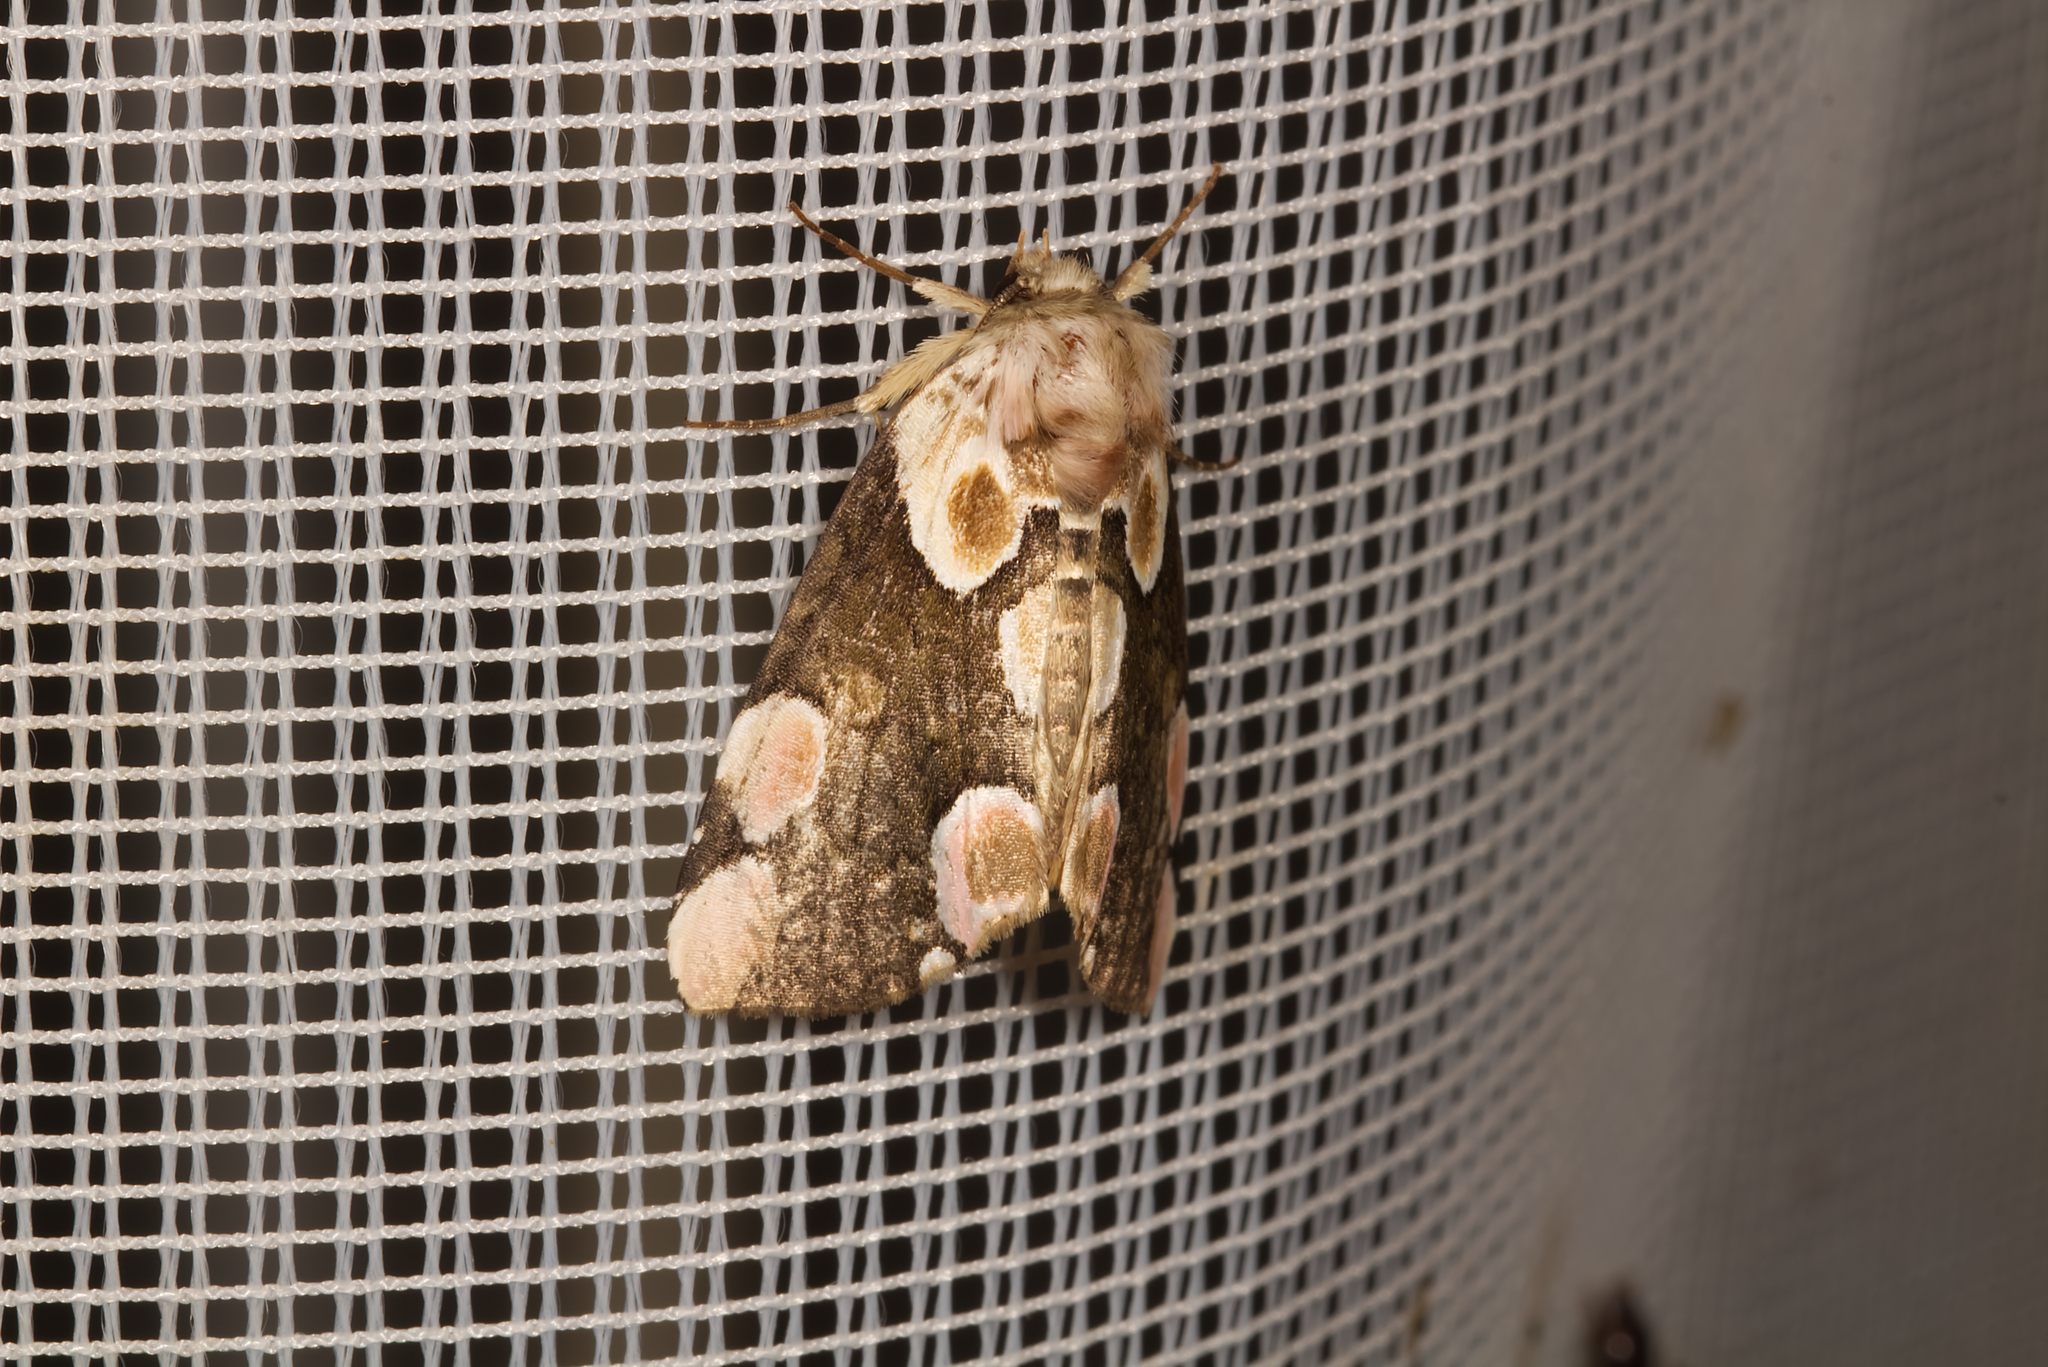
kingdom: Animalia
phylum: Arthropoda
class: Insecta
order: Lepidoptera
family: Drepanidae
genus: Thyatira
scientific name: Thyatira batis
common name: Peach blossom
